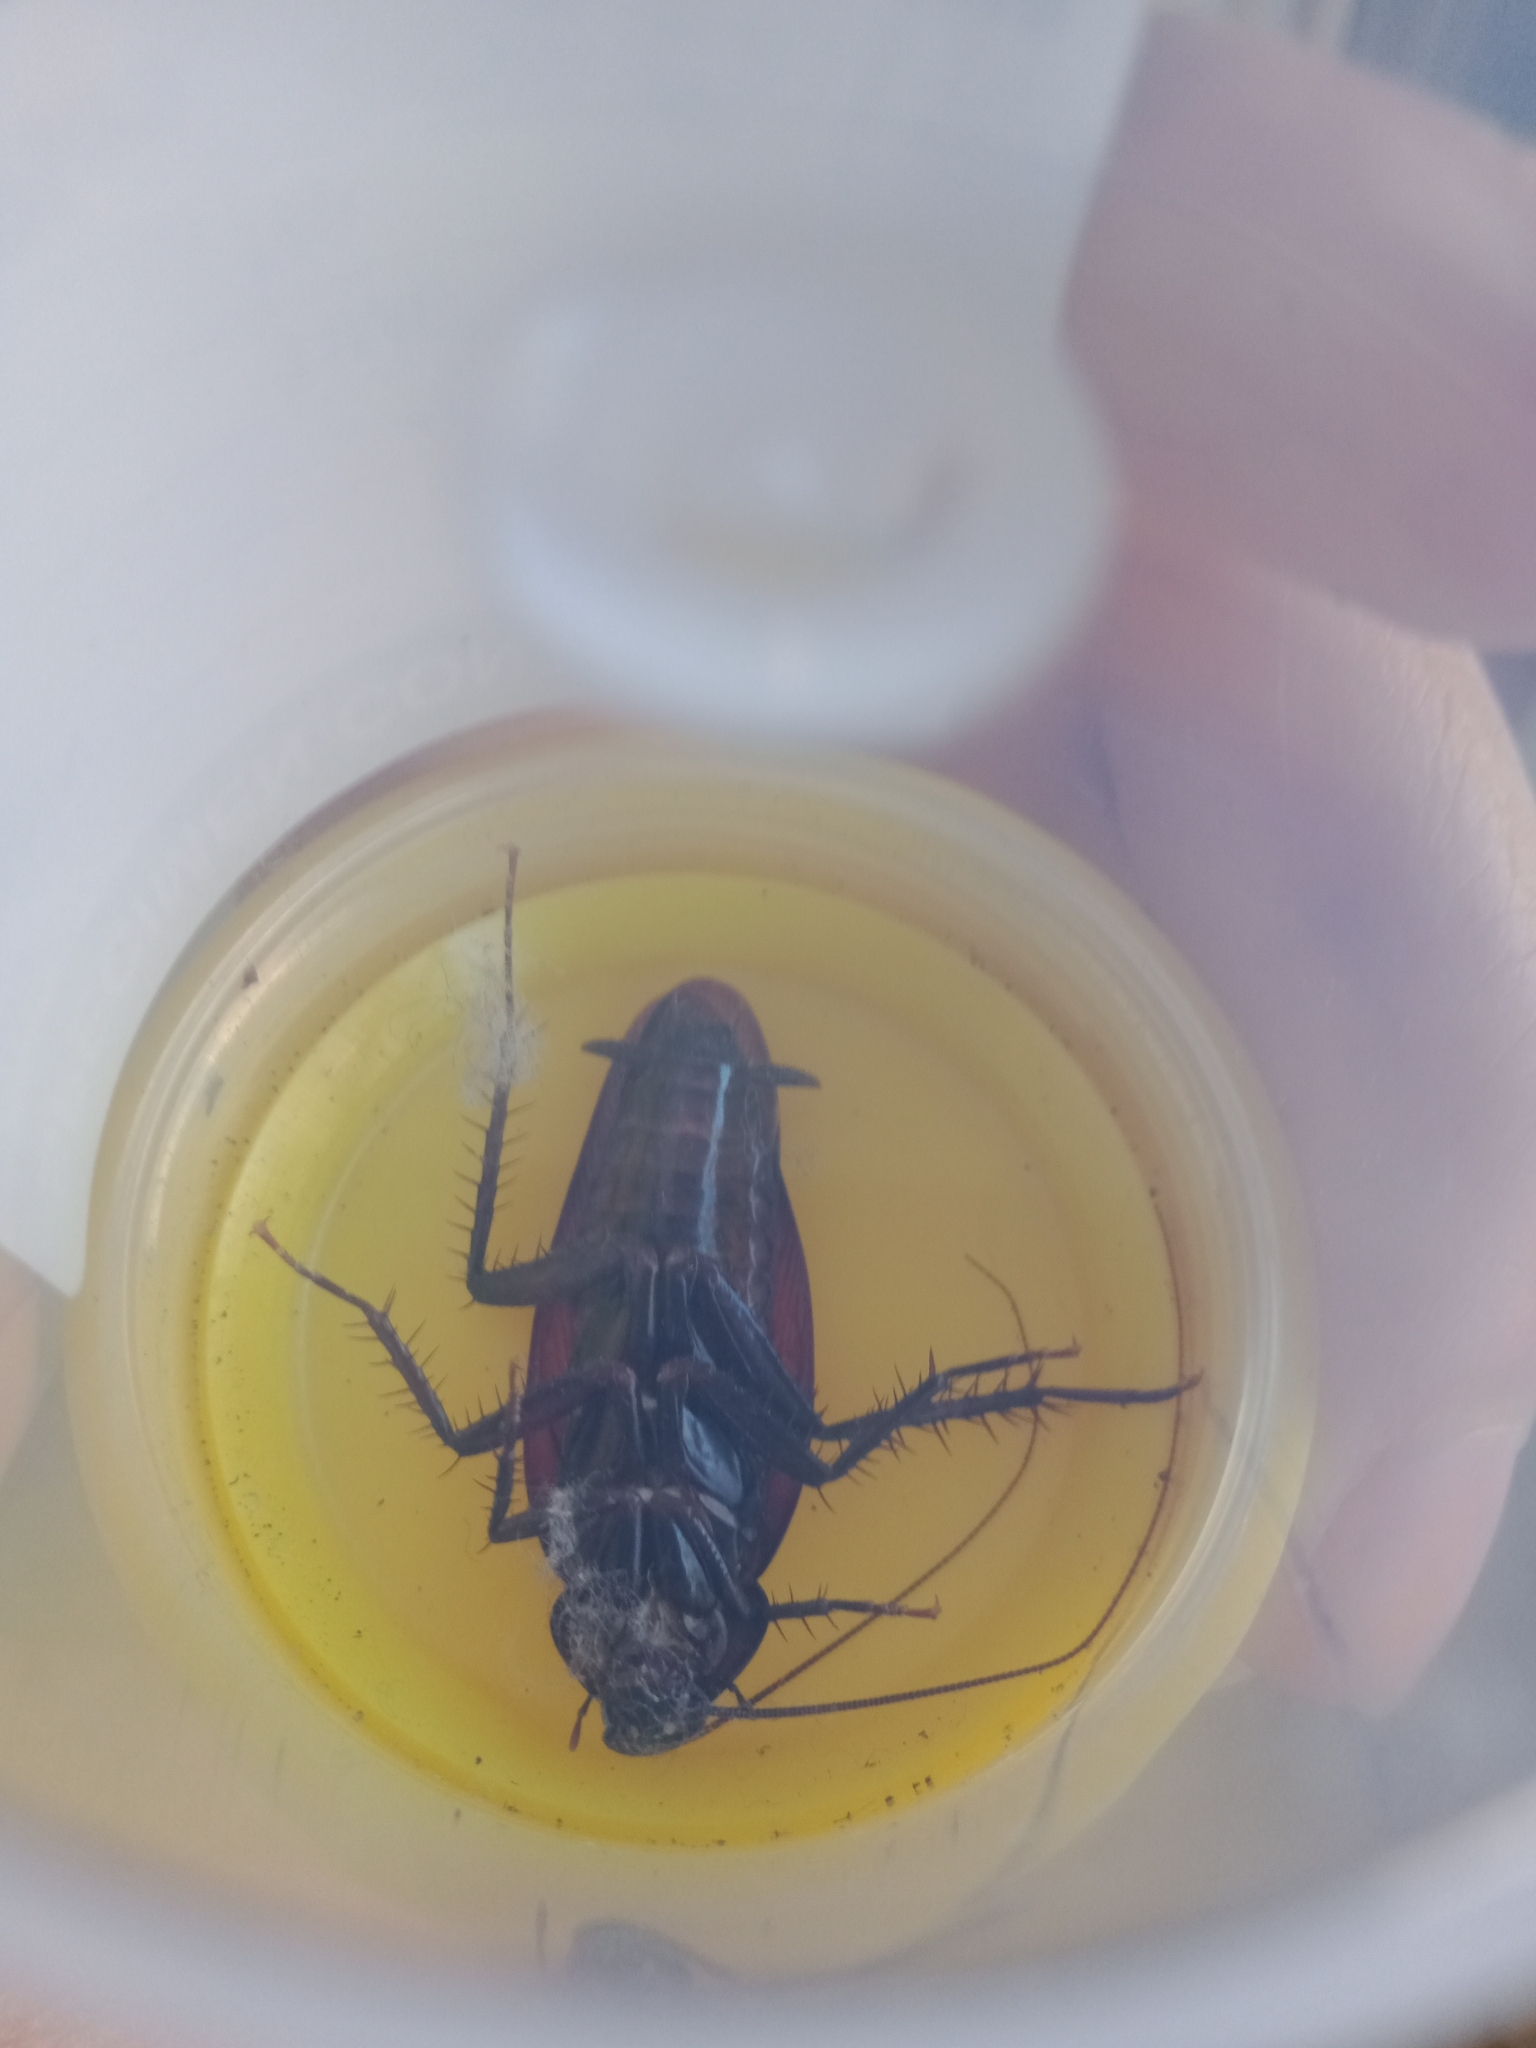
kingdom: Animalia
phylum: Arthropoda
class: Insecta
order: Blattodea
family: Blattidae
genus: Periplaneta
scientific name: Periplaneta fuliginosa
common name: Smokeybrown cockroad
